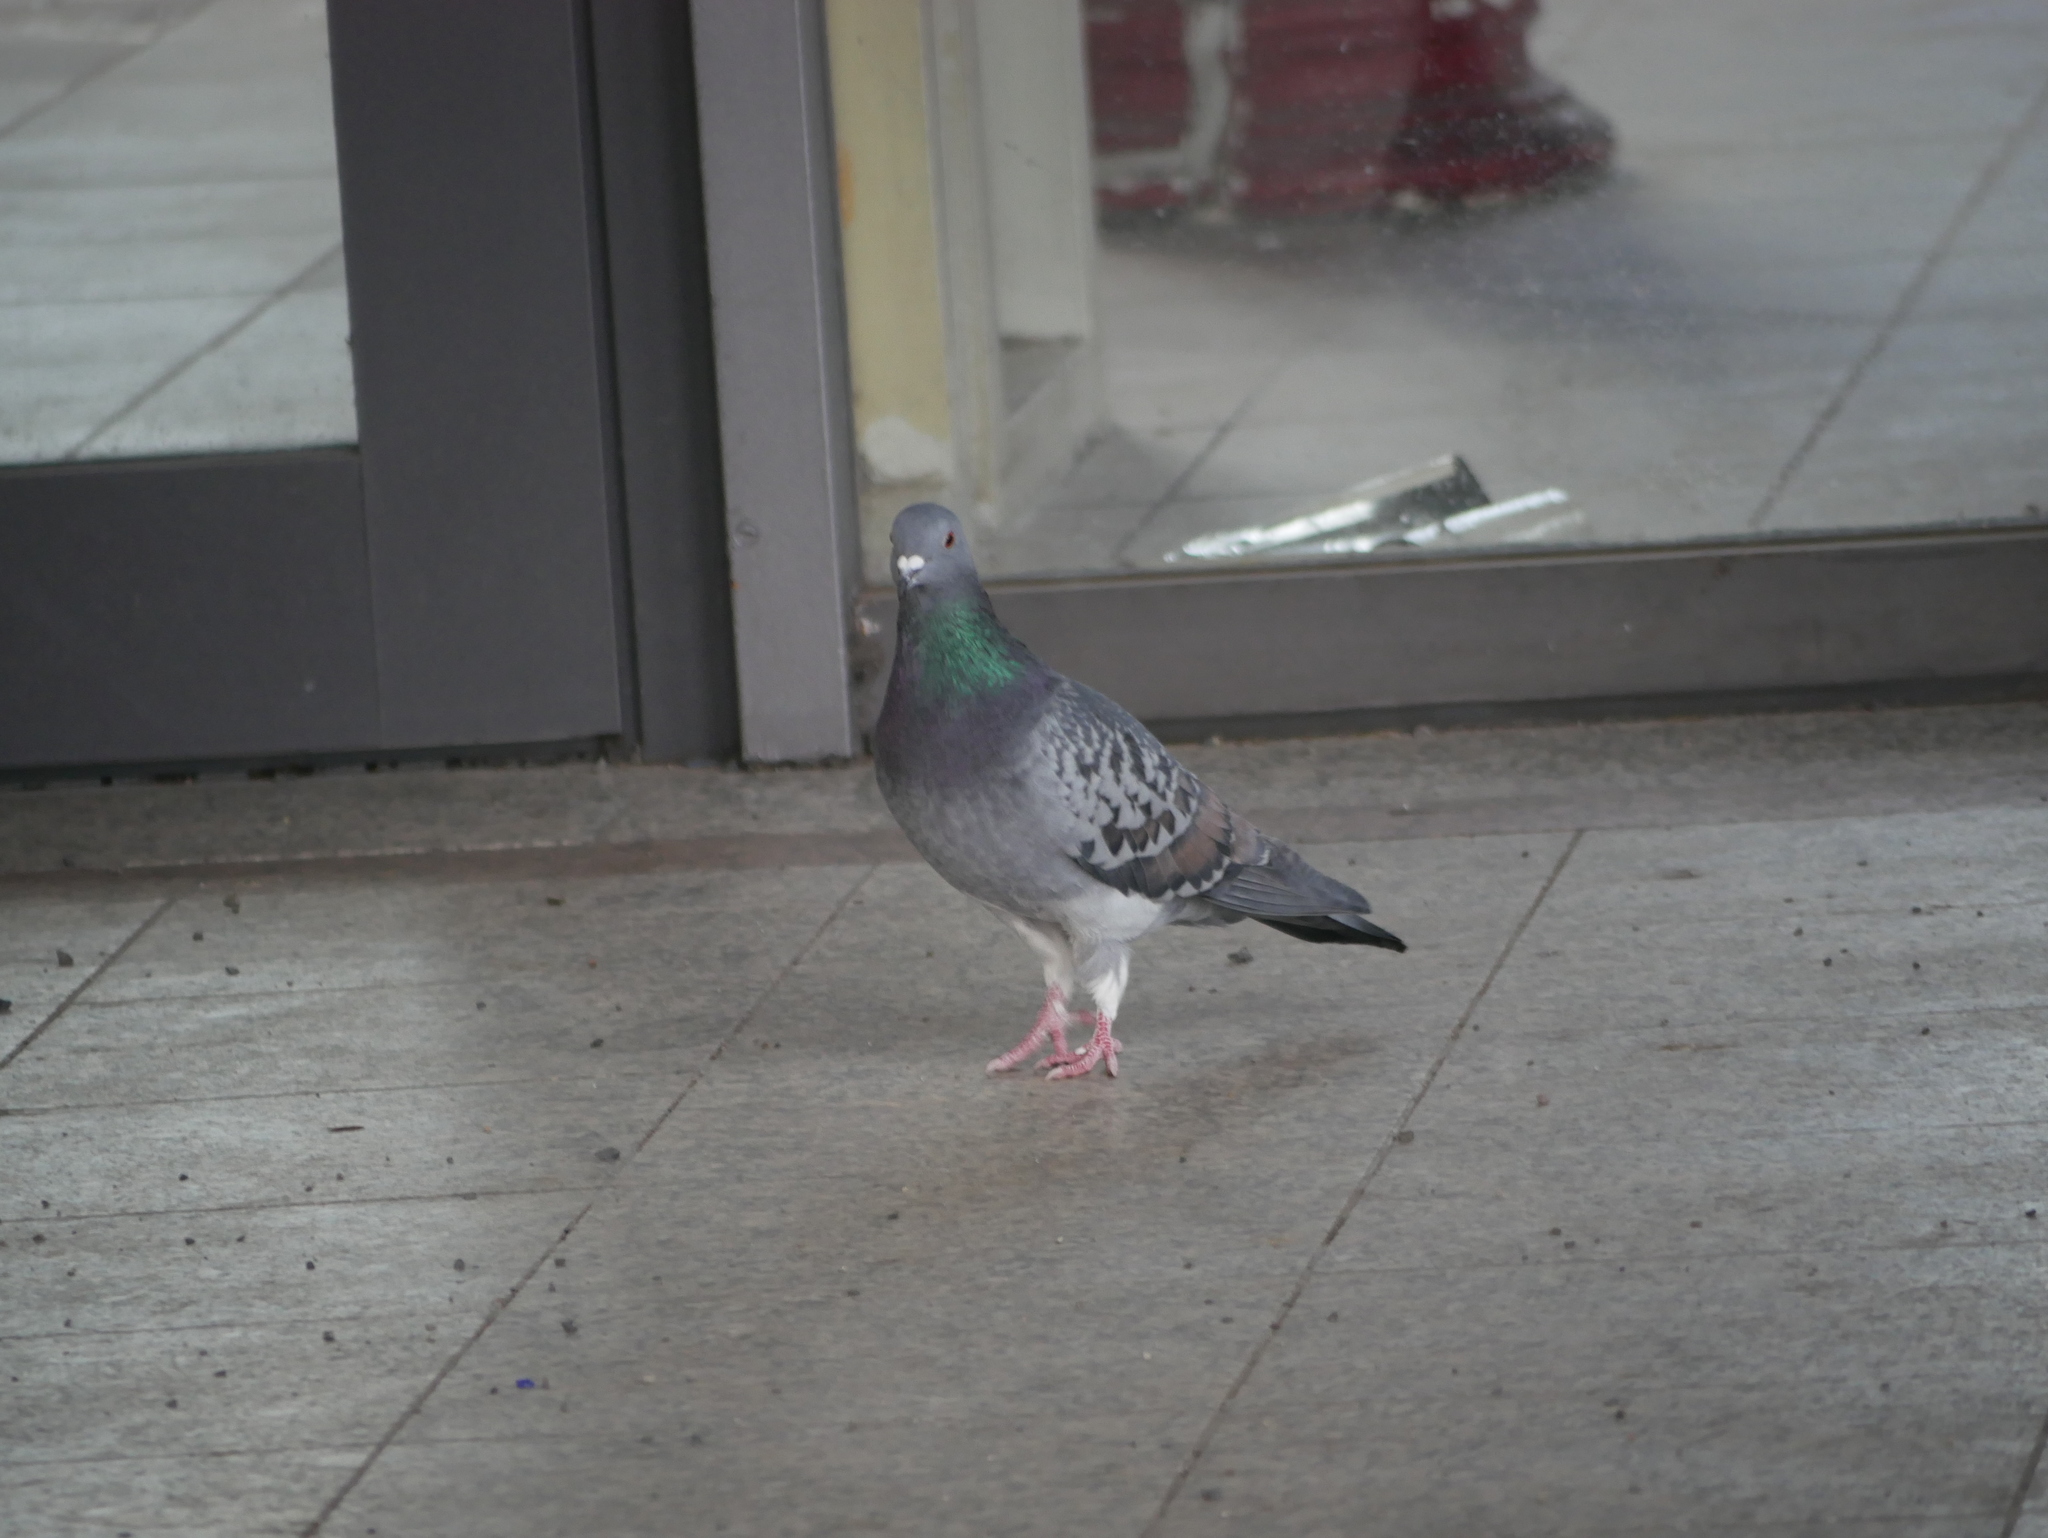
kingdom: Animalia
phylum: Chordata
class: Aves
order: Columbiformes
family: Columbidae
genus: Columba
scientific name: Columba livia
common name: Rock pigeon
